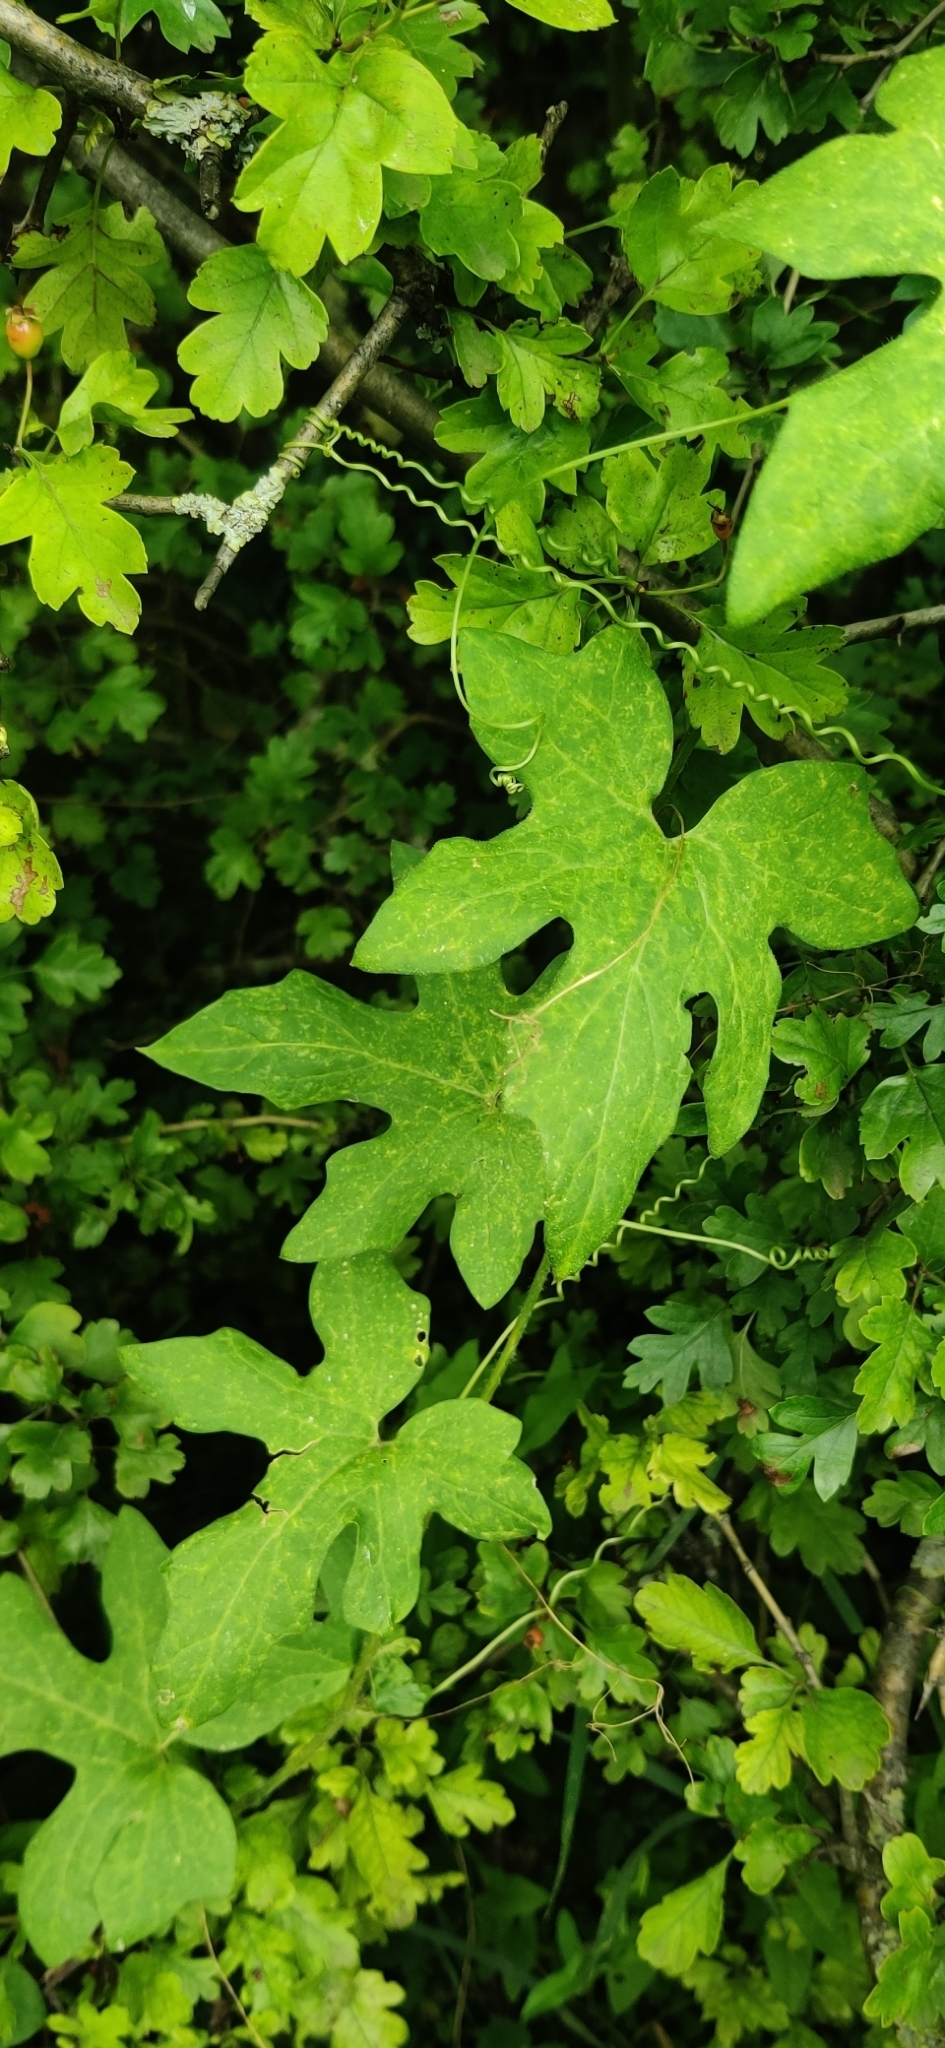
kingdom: Plantae
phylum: Tracheophyta
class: Magnoliopsida
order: Cucurbitales
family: Cucurbitaceae
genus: Bryonia
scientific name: Bryonia dioica
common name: White bryony
